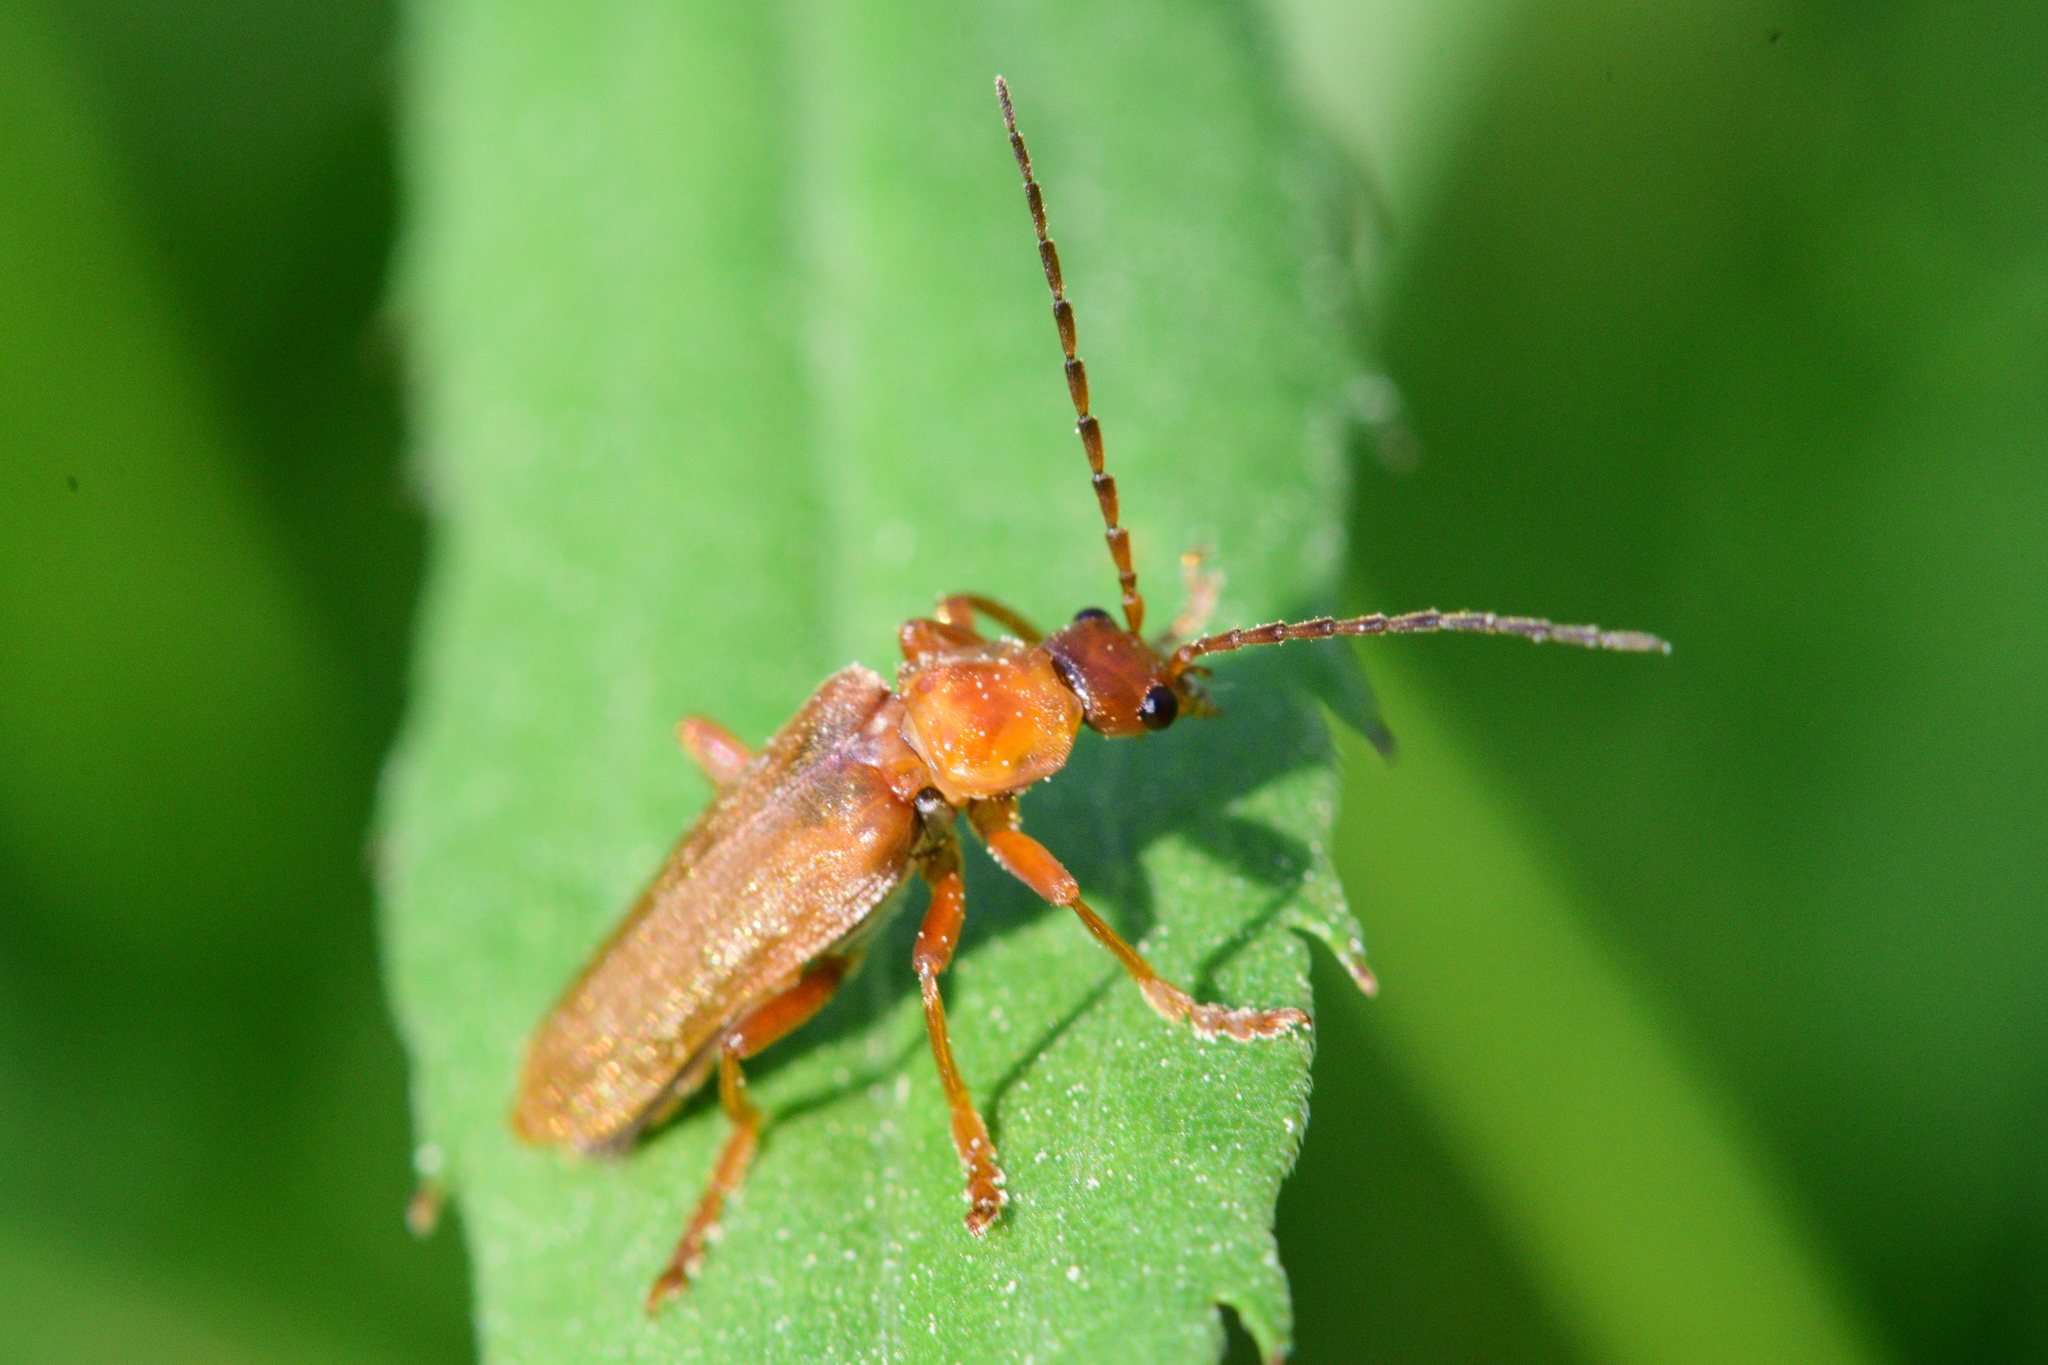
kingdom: Animalia
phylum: Arthropoda
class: Insecta
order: Coleoptera
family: Cantharidae
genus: Cantharis
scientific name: Cantharis rufa
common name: Red-spotted soldier beetle
